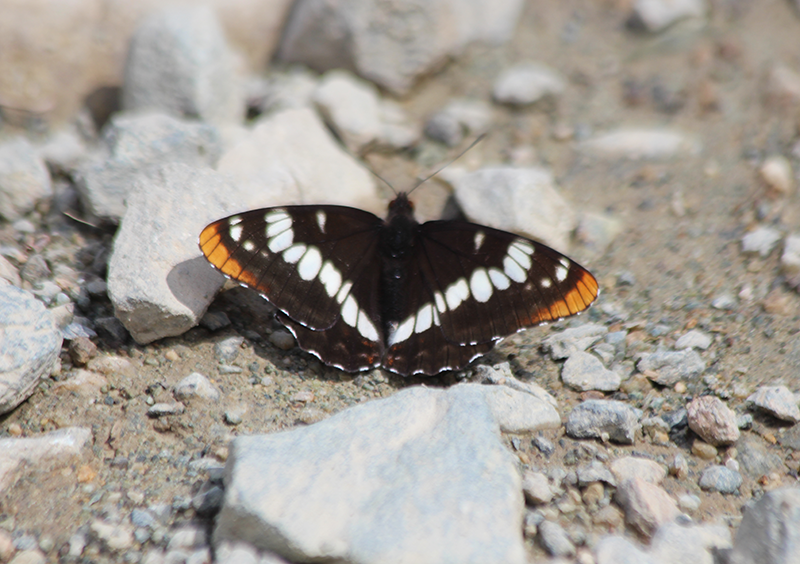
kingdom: Animalia
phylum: Arthropoda
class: Insecta
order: Lepidoptera
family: Nymphalidae
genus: Limenitis
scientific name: Limenitis lorquini
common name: Lorquin's admiral
